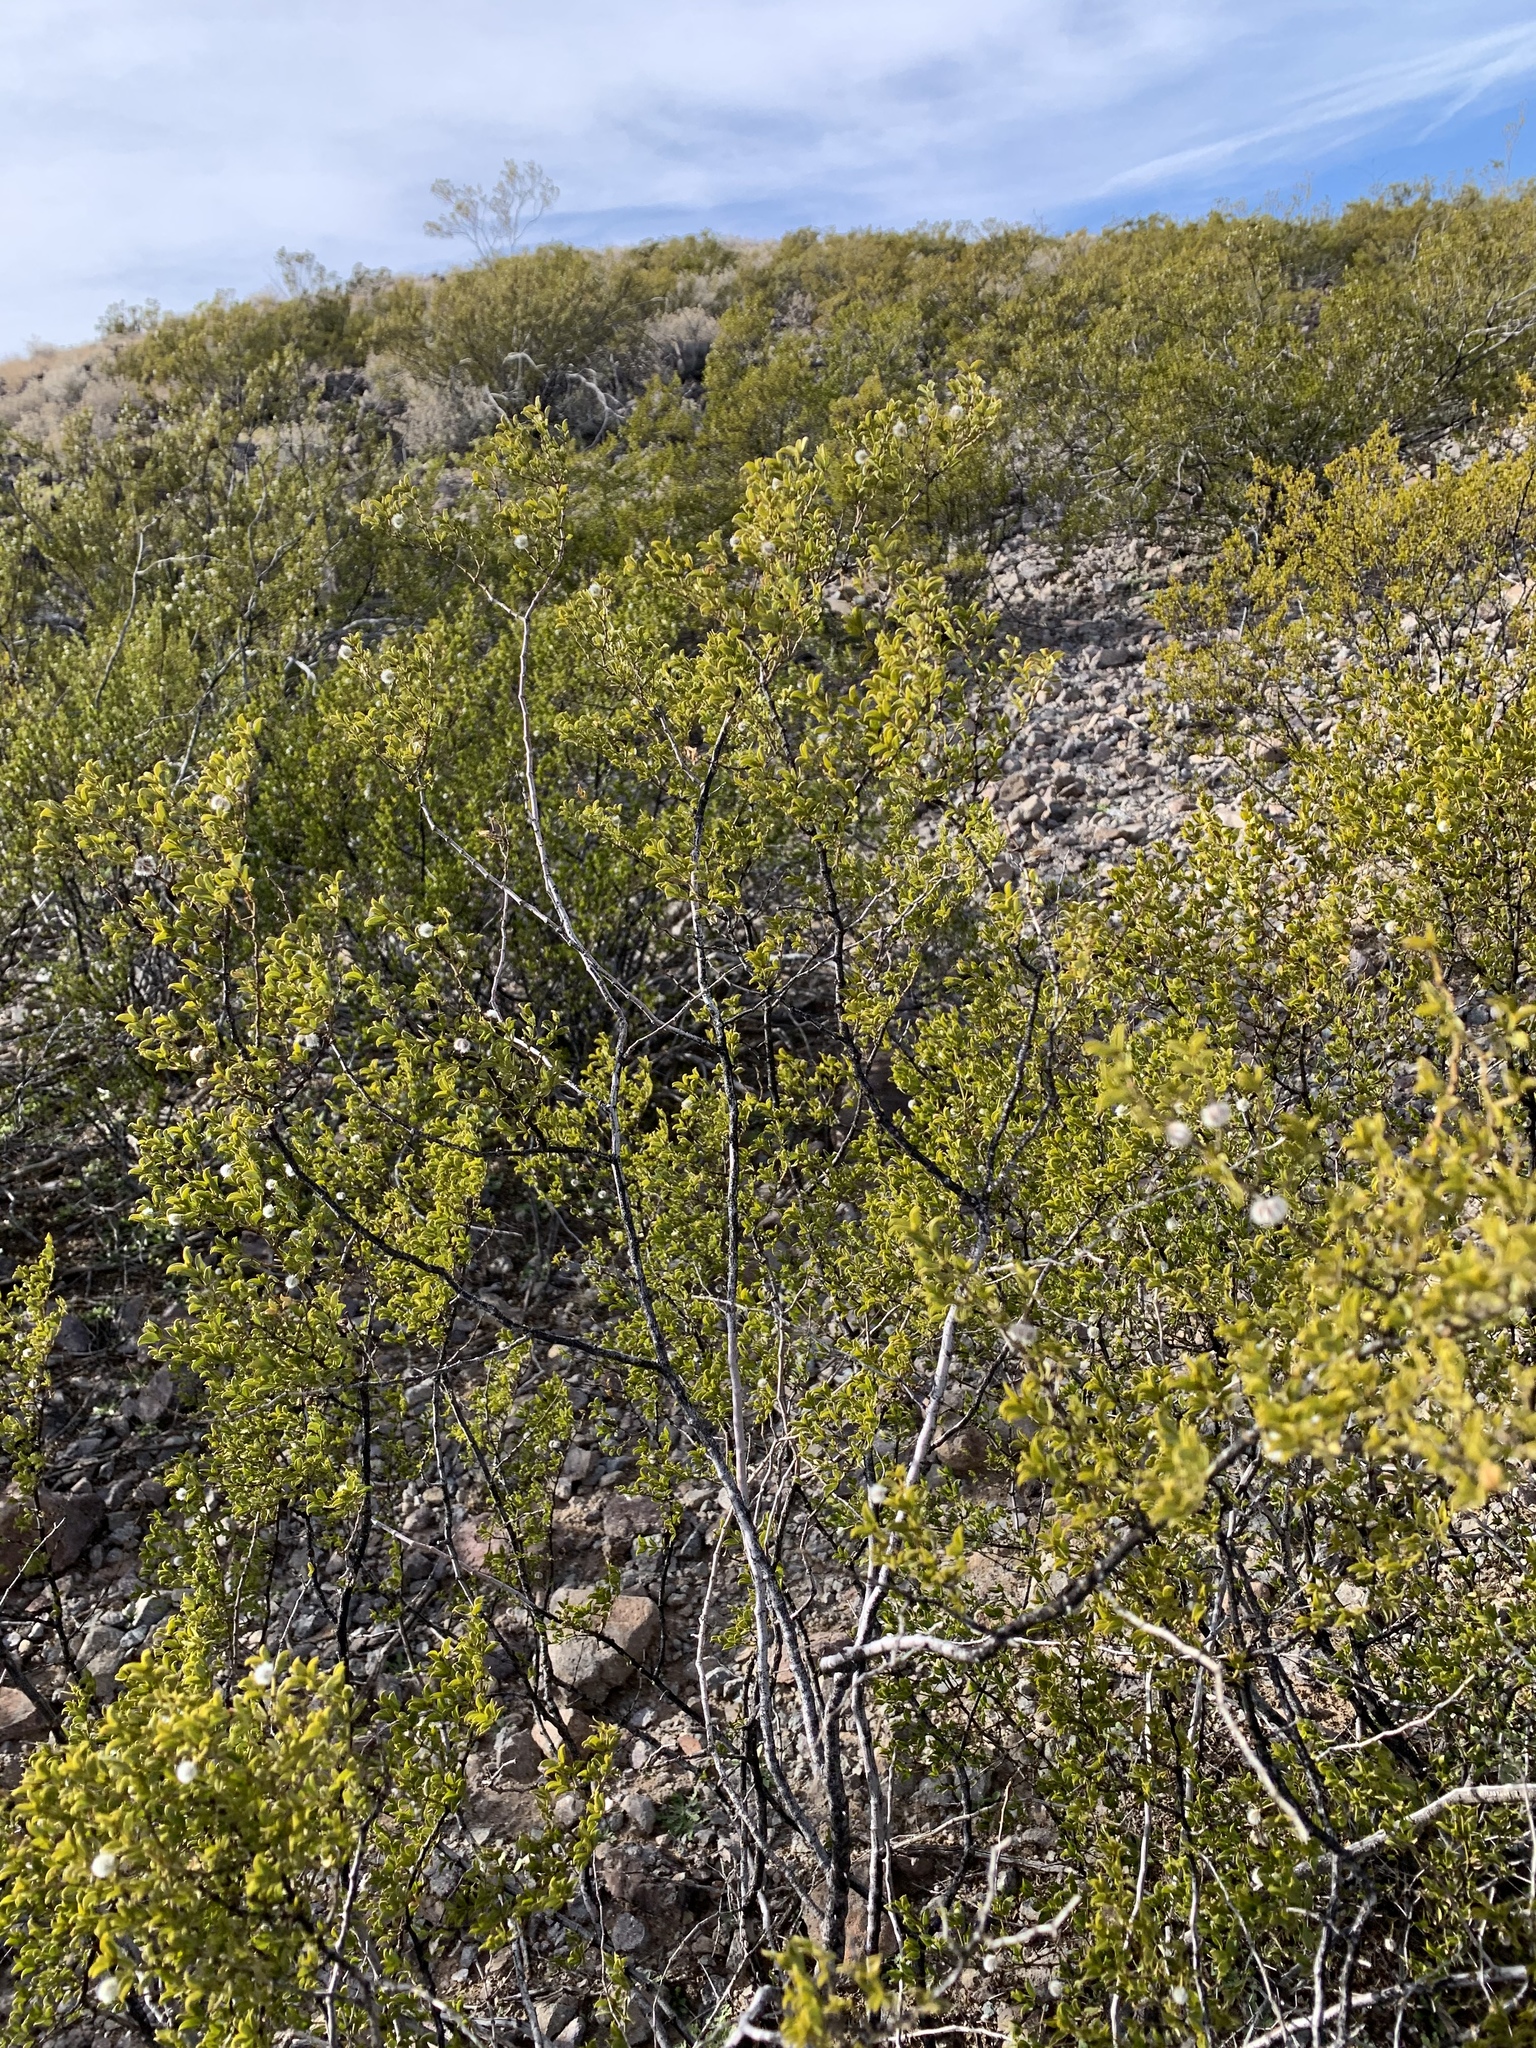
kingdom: Plantae
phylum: Tracheophyta
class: Magnoliopsida
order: Zygophyllales
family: Zygophyllaceae
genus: Larrea
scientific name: Larrea tridentata
